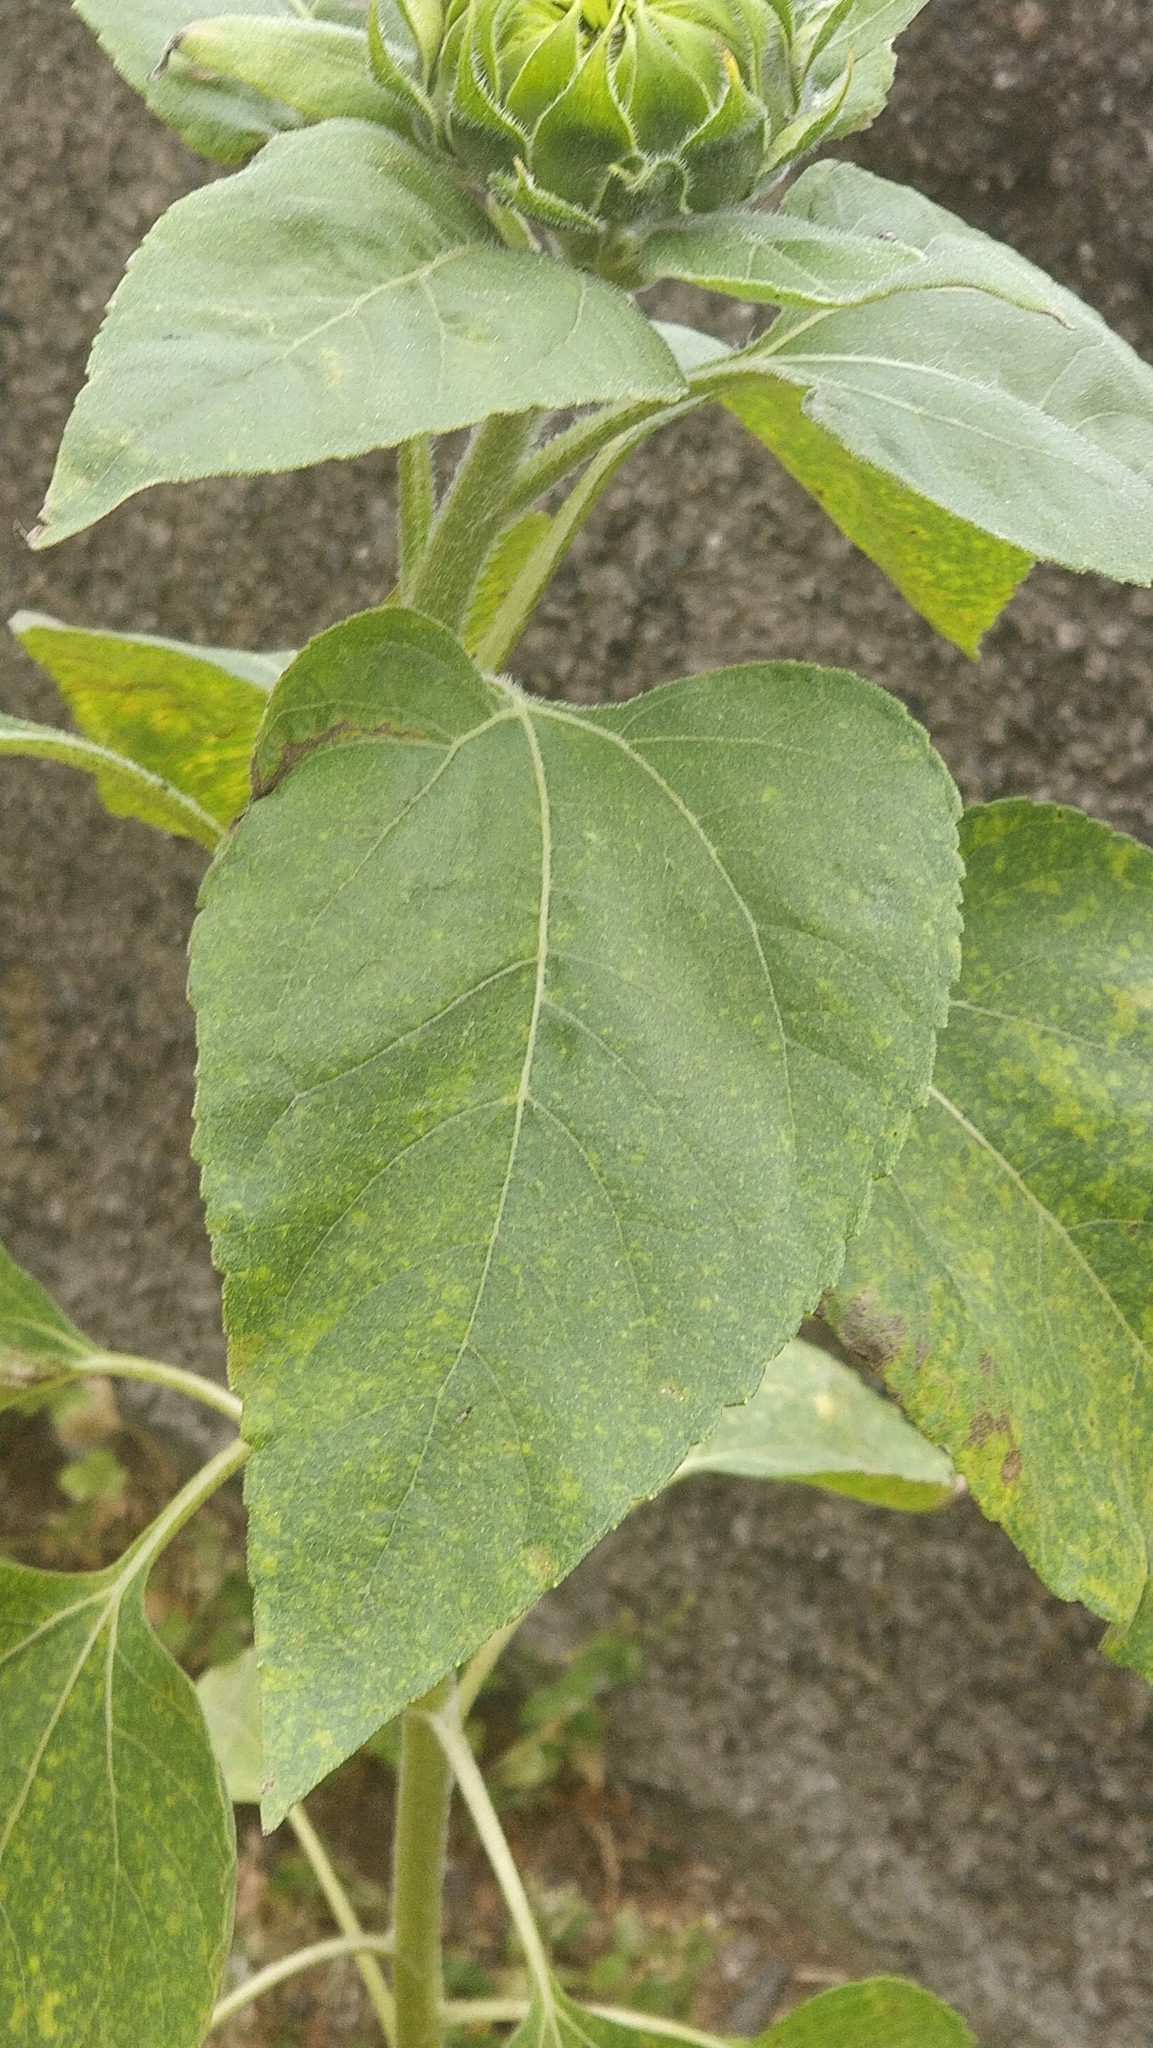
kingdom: Plantae
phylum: Tracheophyta
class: Magnoliopsida
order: Asterales
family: Asteraceae
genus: Helianthus
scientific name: Helianthus annuus
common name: Sunflower
